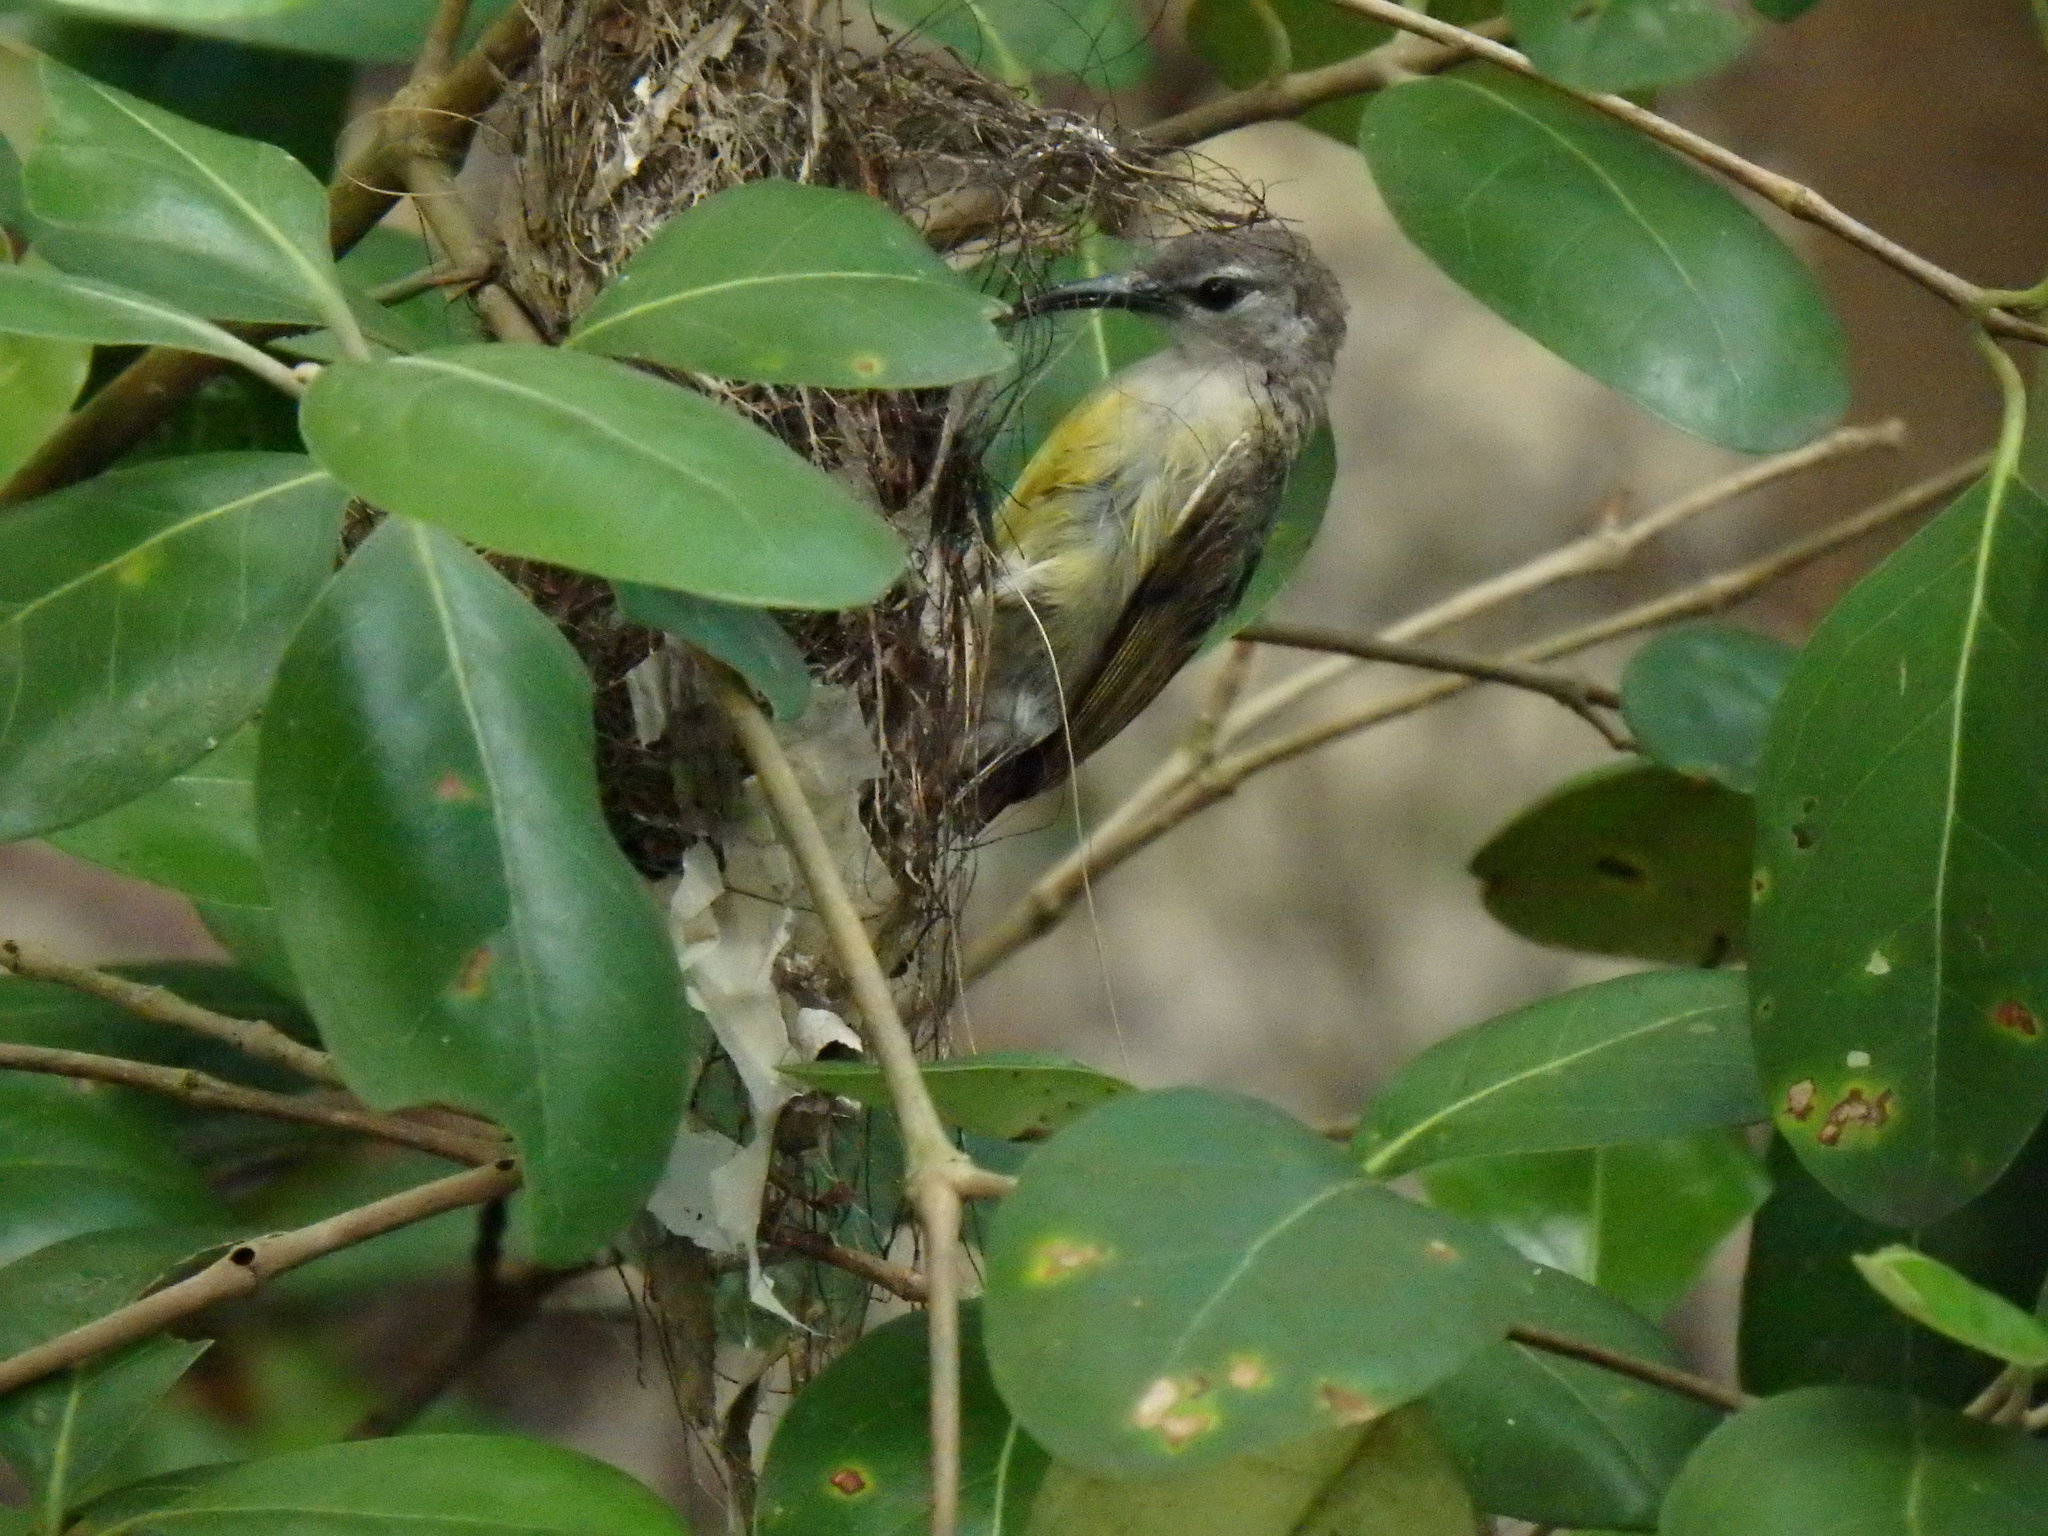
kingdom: Animalia
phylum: Chordata
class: Aves
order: Passeriformes
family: Nectariniidae
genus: Leptocoma
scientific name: Leptocoma calcostetha
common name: Copper-throated sunbird
